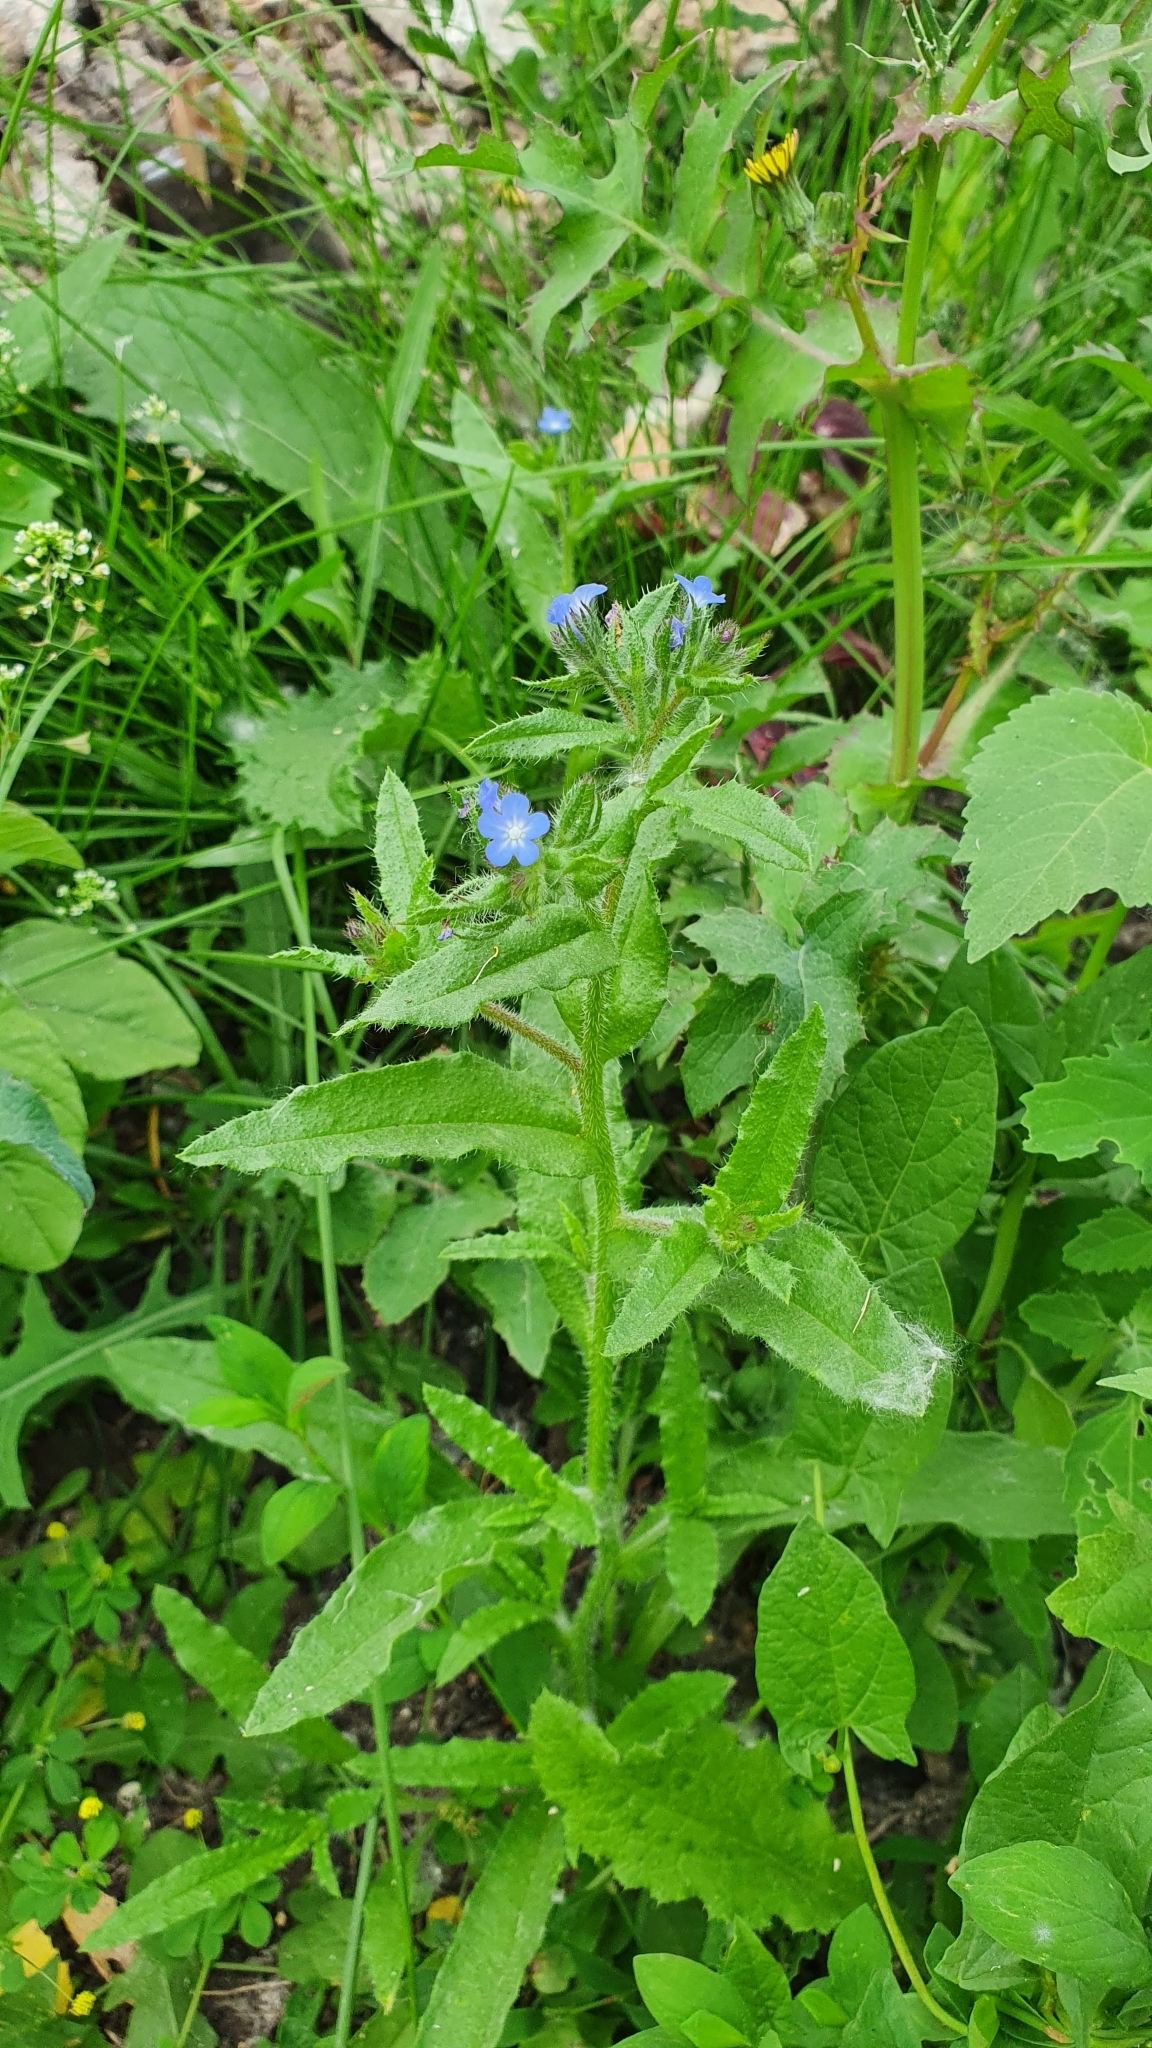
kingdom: Plantae
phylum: Tracheophyta
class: Magnoliopsida
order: Boraginales
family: Boraginaceae
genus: Lycopsis
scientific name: Lycopsis arvensis
